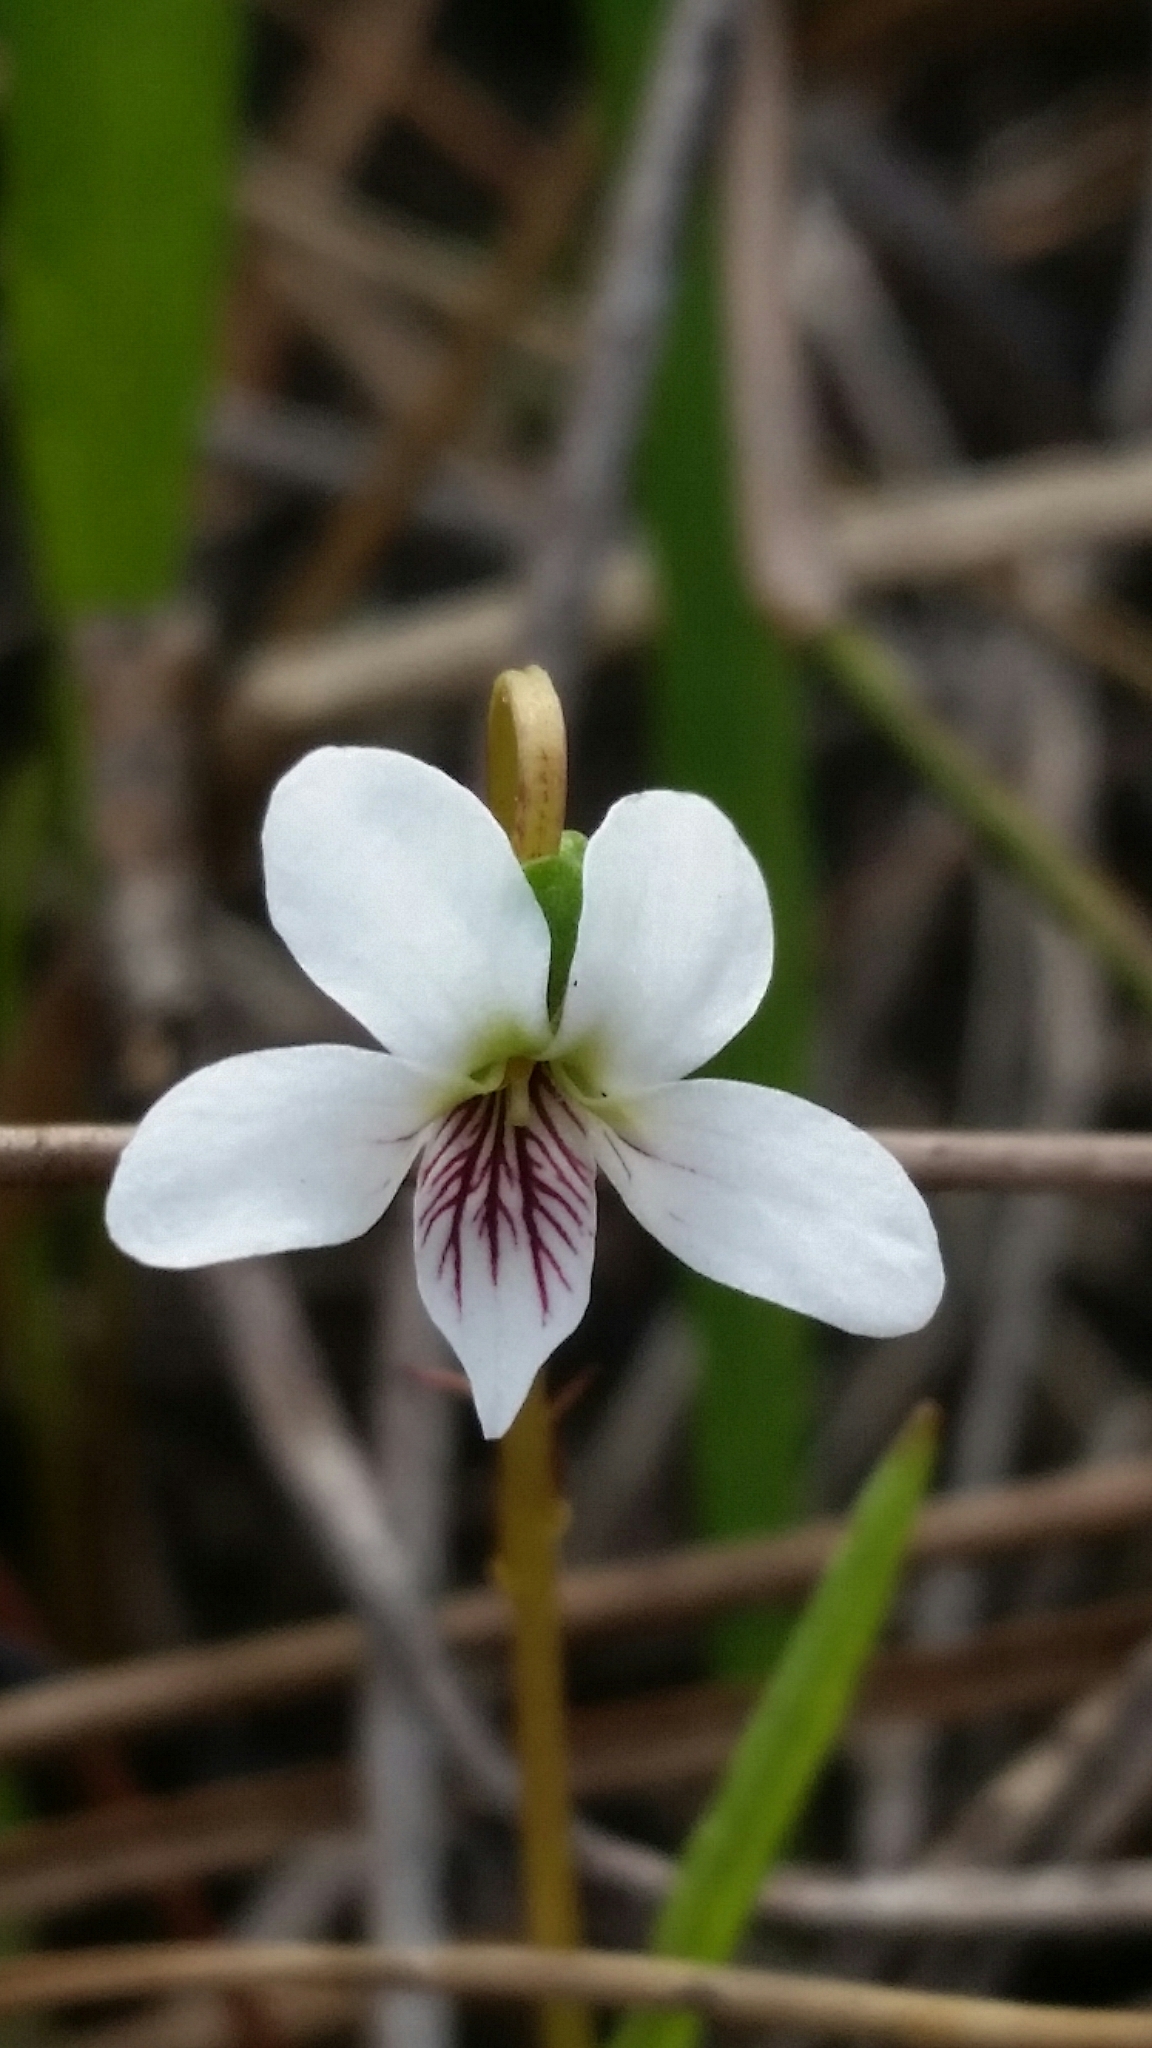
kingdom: Plantae
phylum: Tracheophyta
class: Magnoliopsida
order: Malpighiales
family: Violaceae
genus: Viola
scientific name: Viola vittata
